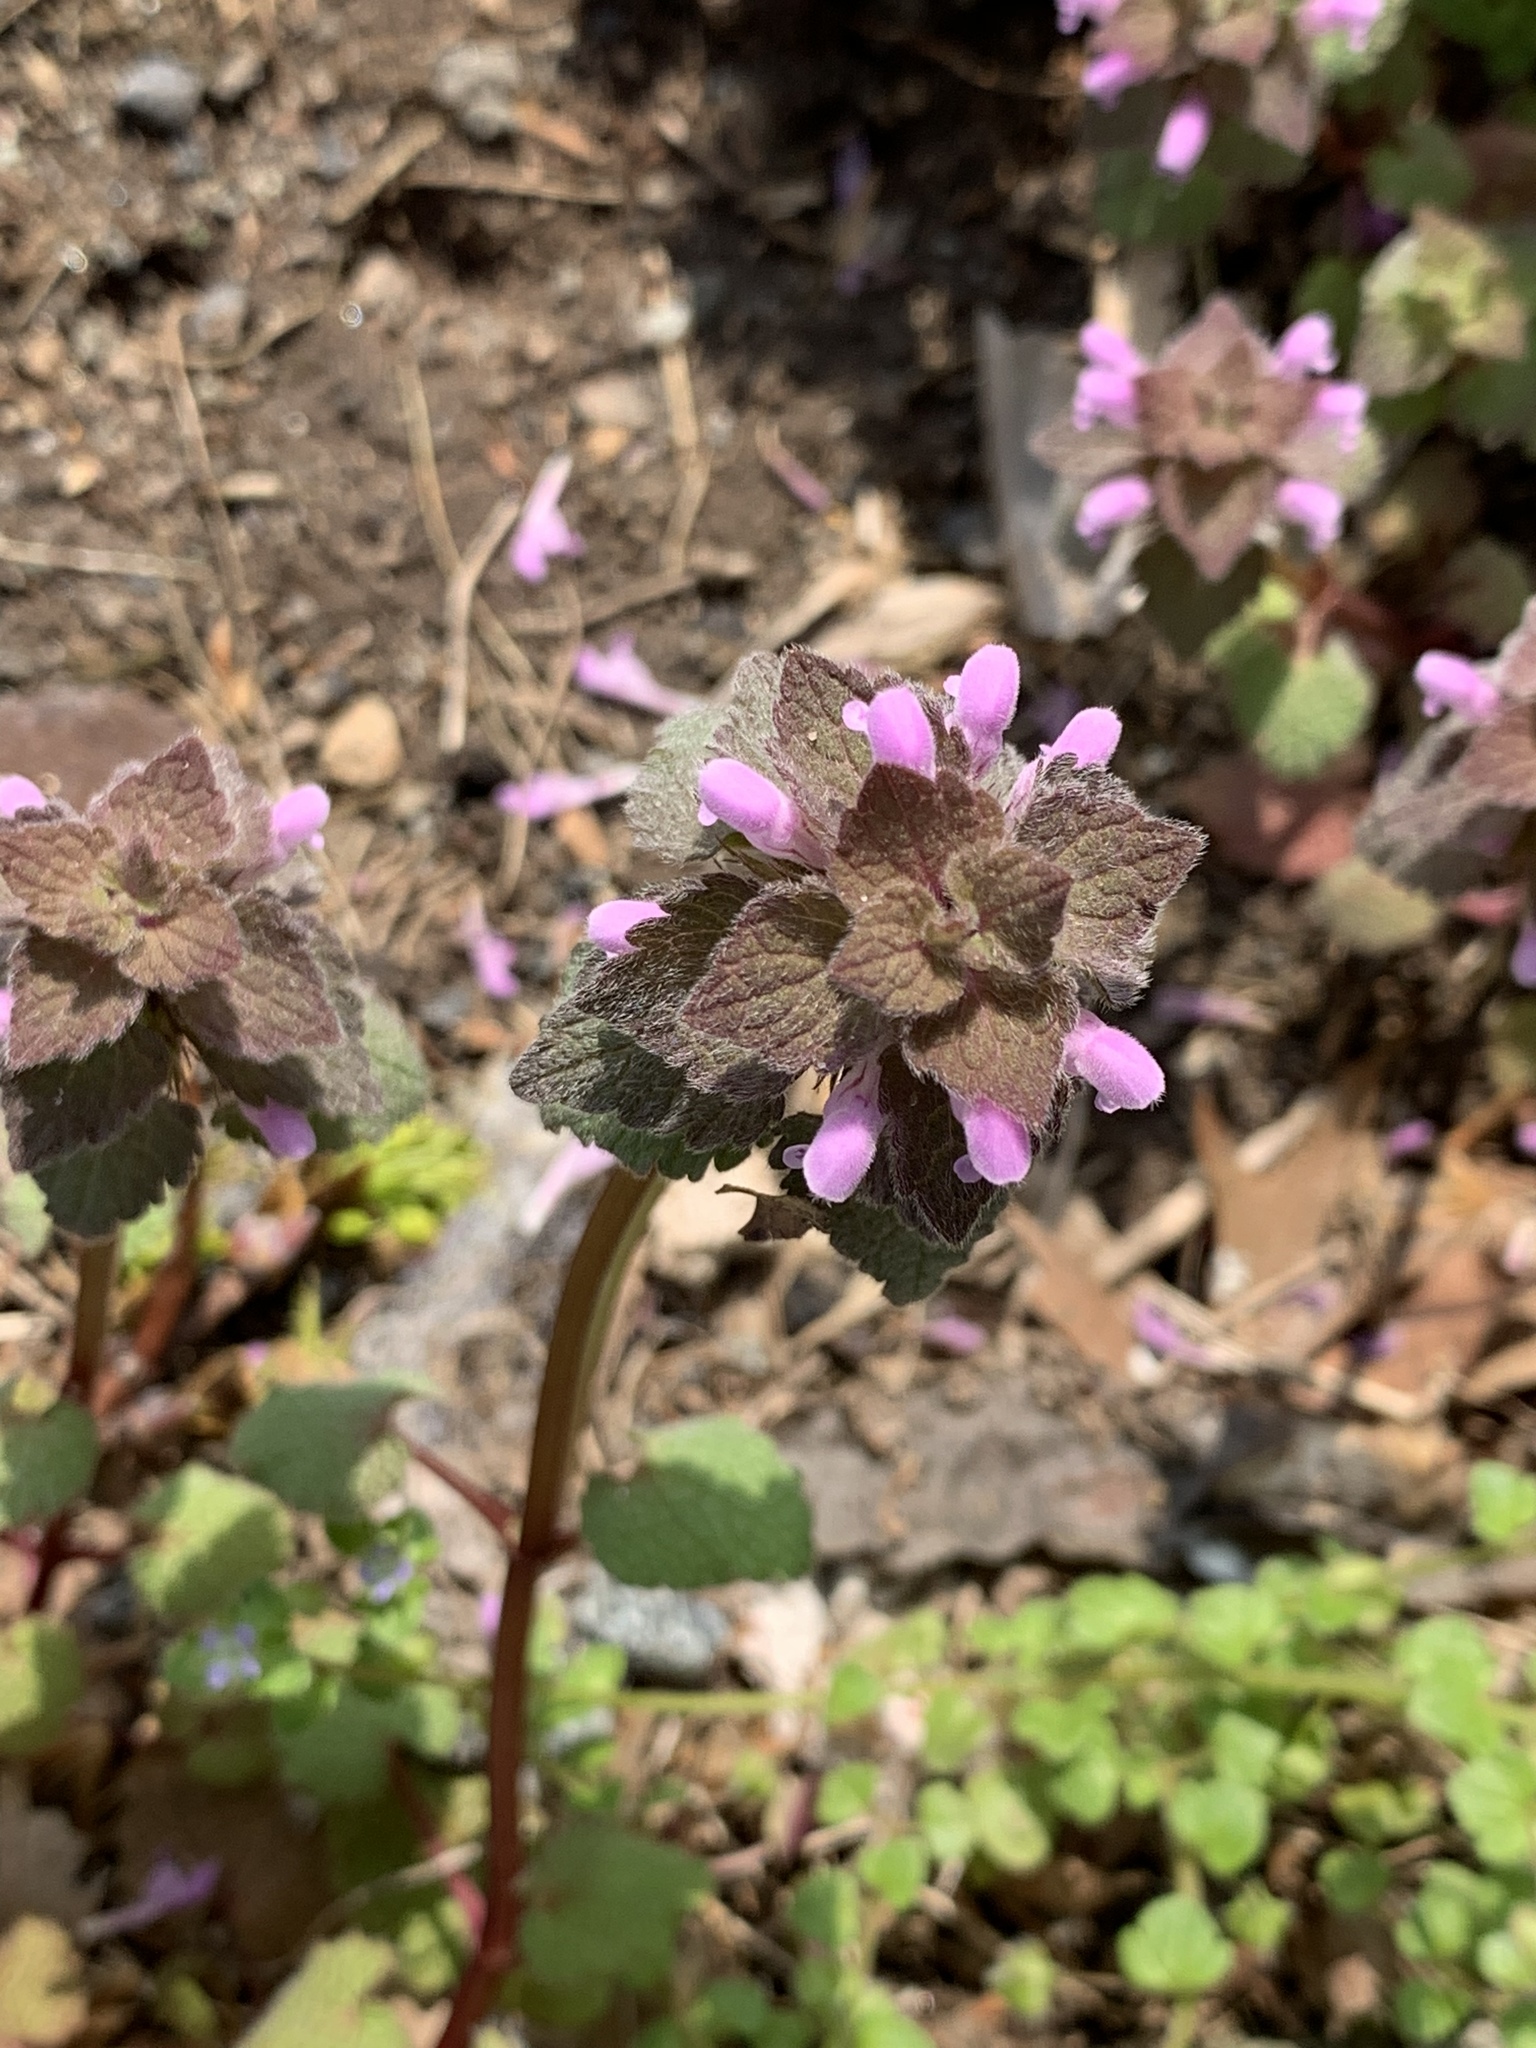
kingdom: Plantae
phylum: Tracheophyta
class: Magnoliopsida
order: Lamiales
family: Lamiaceae
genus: Lamium
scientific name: Lamium purpureum
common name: Red dead-nettle
